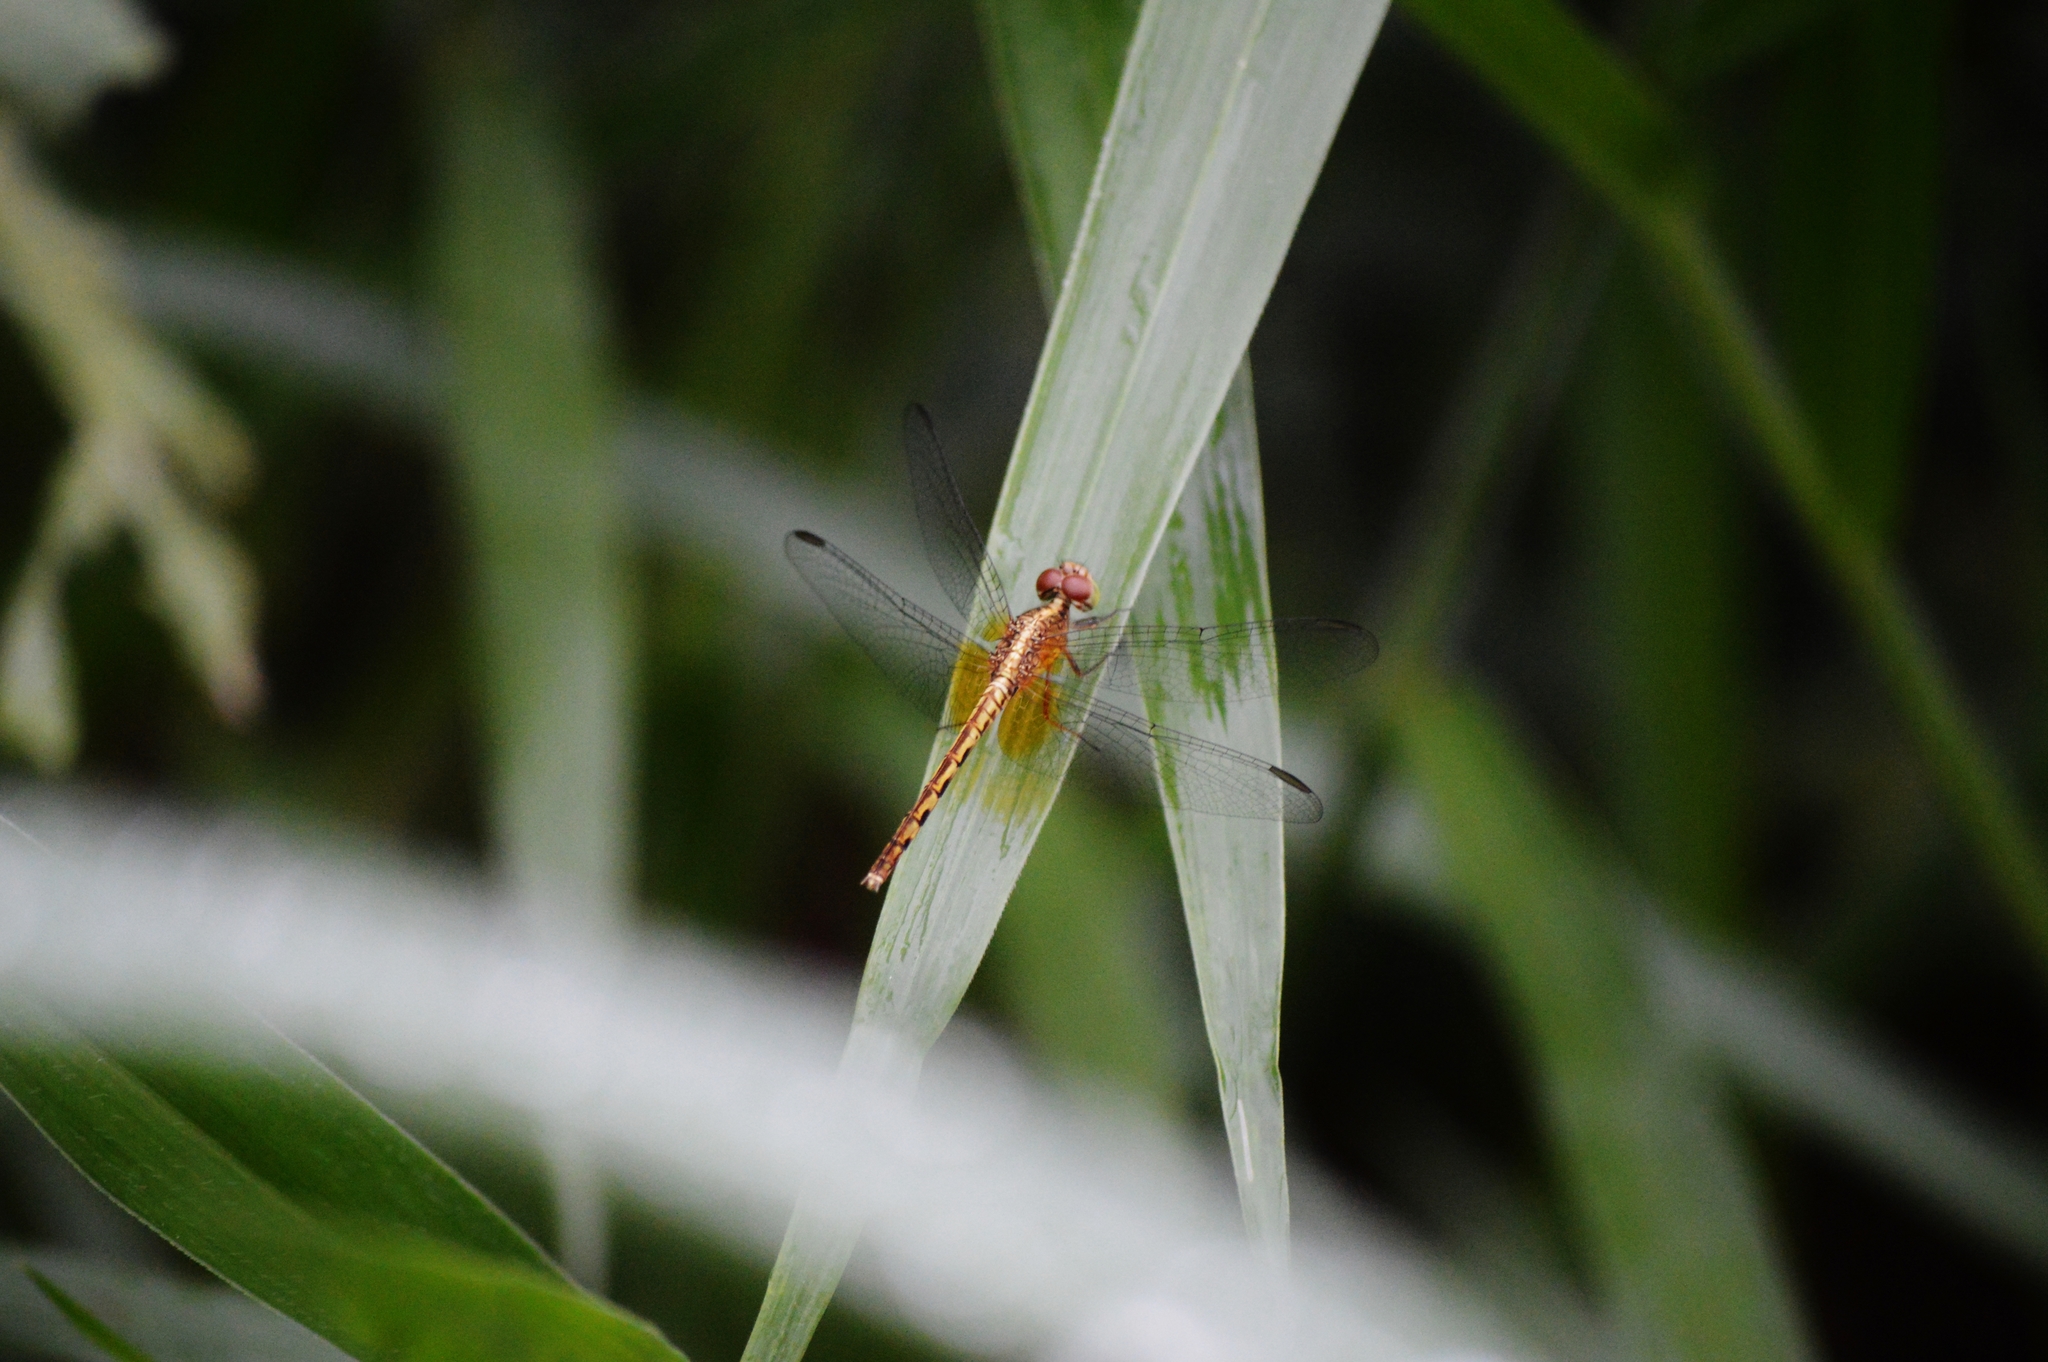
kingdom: Animalia
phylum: Arthropoda
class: Insecta
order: Odonata
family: Libellulidae
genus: Erythrodiplax
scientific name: Erythrodiplax umbrata
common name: Band-winged dragonlet
